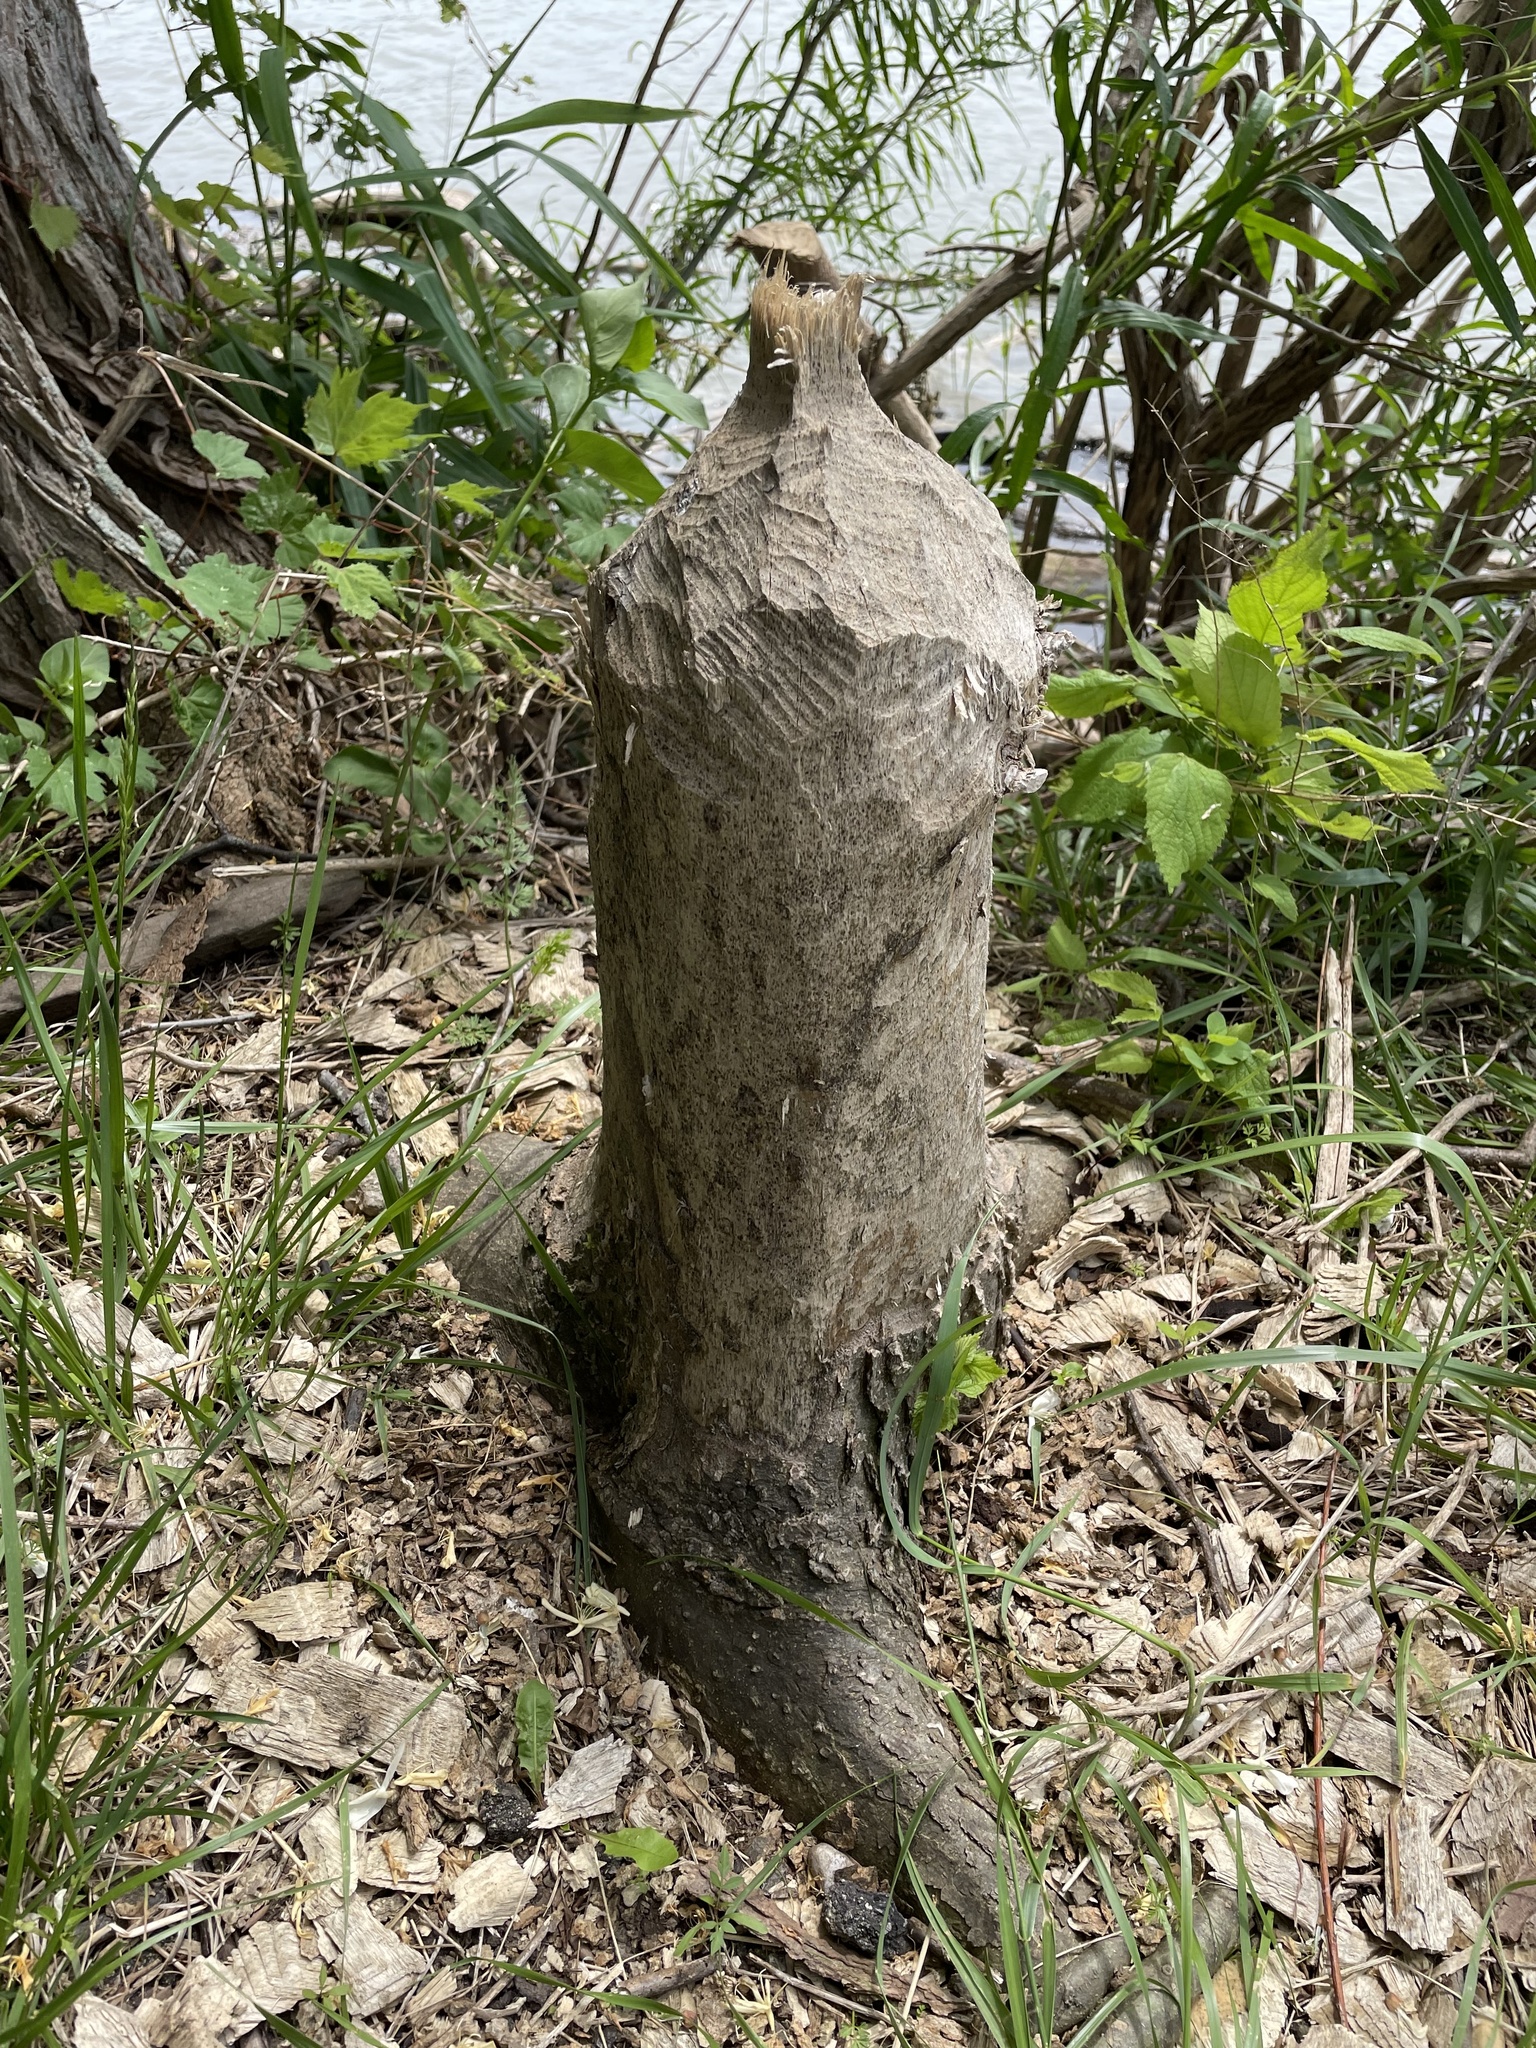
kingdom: Animalia
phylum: Chordata
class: Mammalia
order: Rodentia
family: Castoridae
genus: Castor
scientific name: Castor canadensis
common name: American beaver
